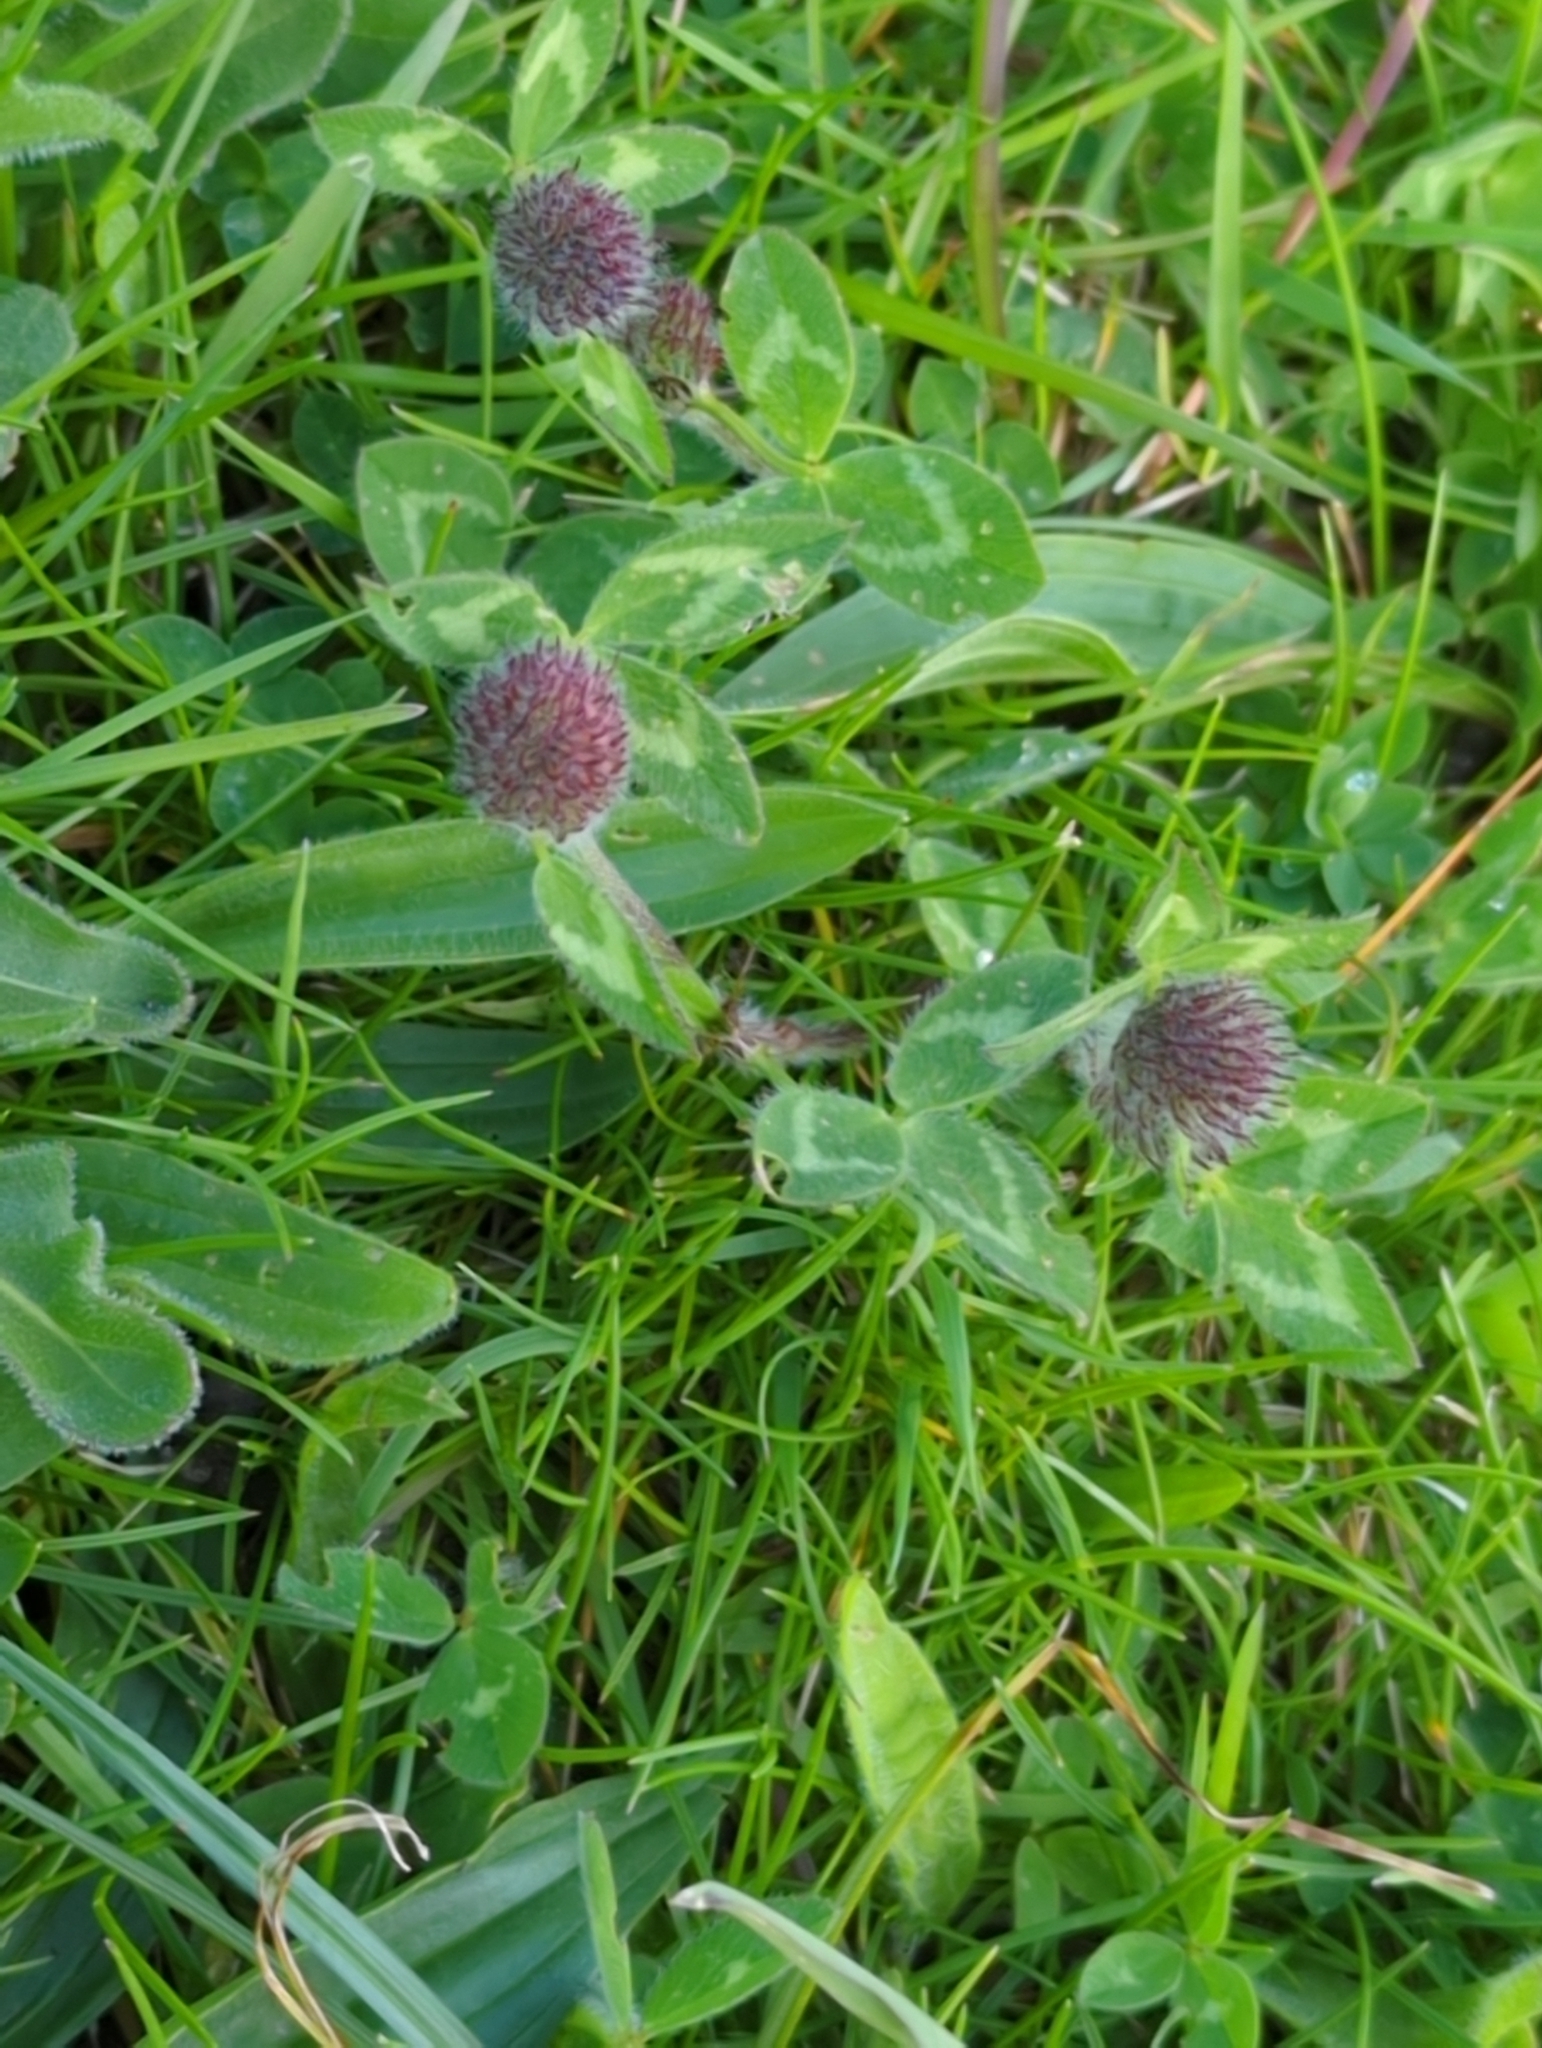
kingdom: Plantae
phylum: Tracheophyta
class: Magnoliopsida
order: Fabales
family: Fabaceae
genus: Trifolium
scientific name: Trifolium pratense
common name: Red clover
